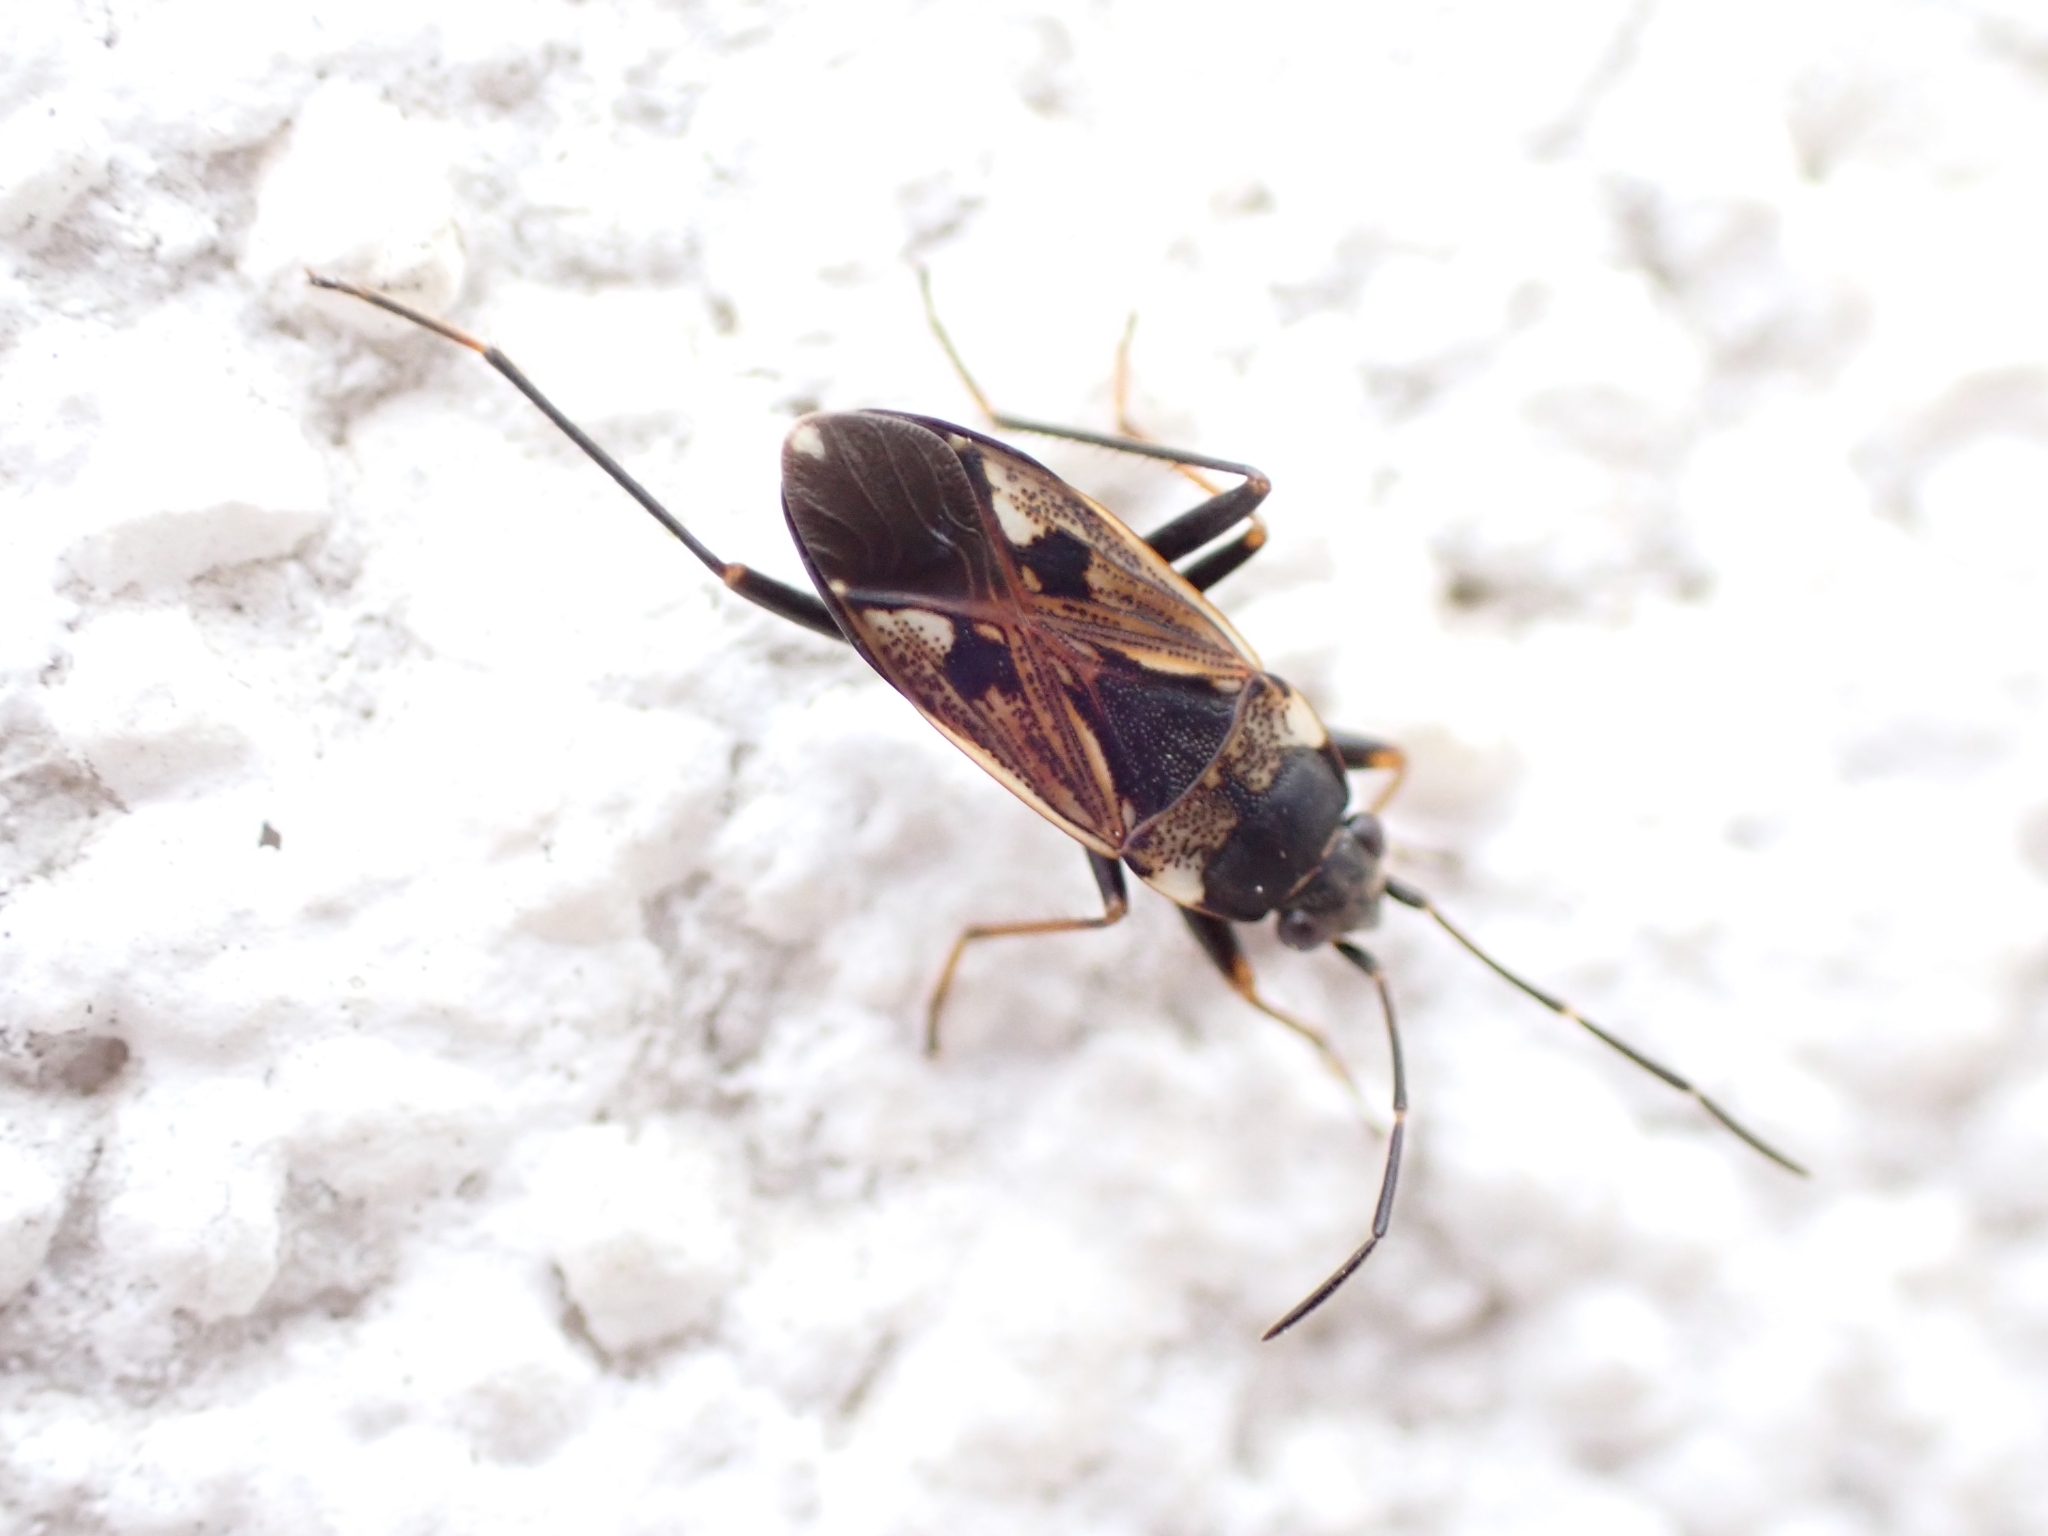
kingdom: Animalia
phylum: Arthropoda
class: Insecta
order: Hemiptera
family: Rhyparochromidae
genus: Rhyparochromus
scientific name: Rhyparochromus vulgaris
